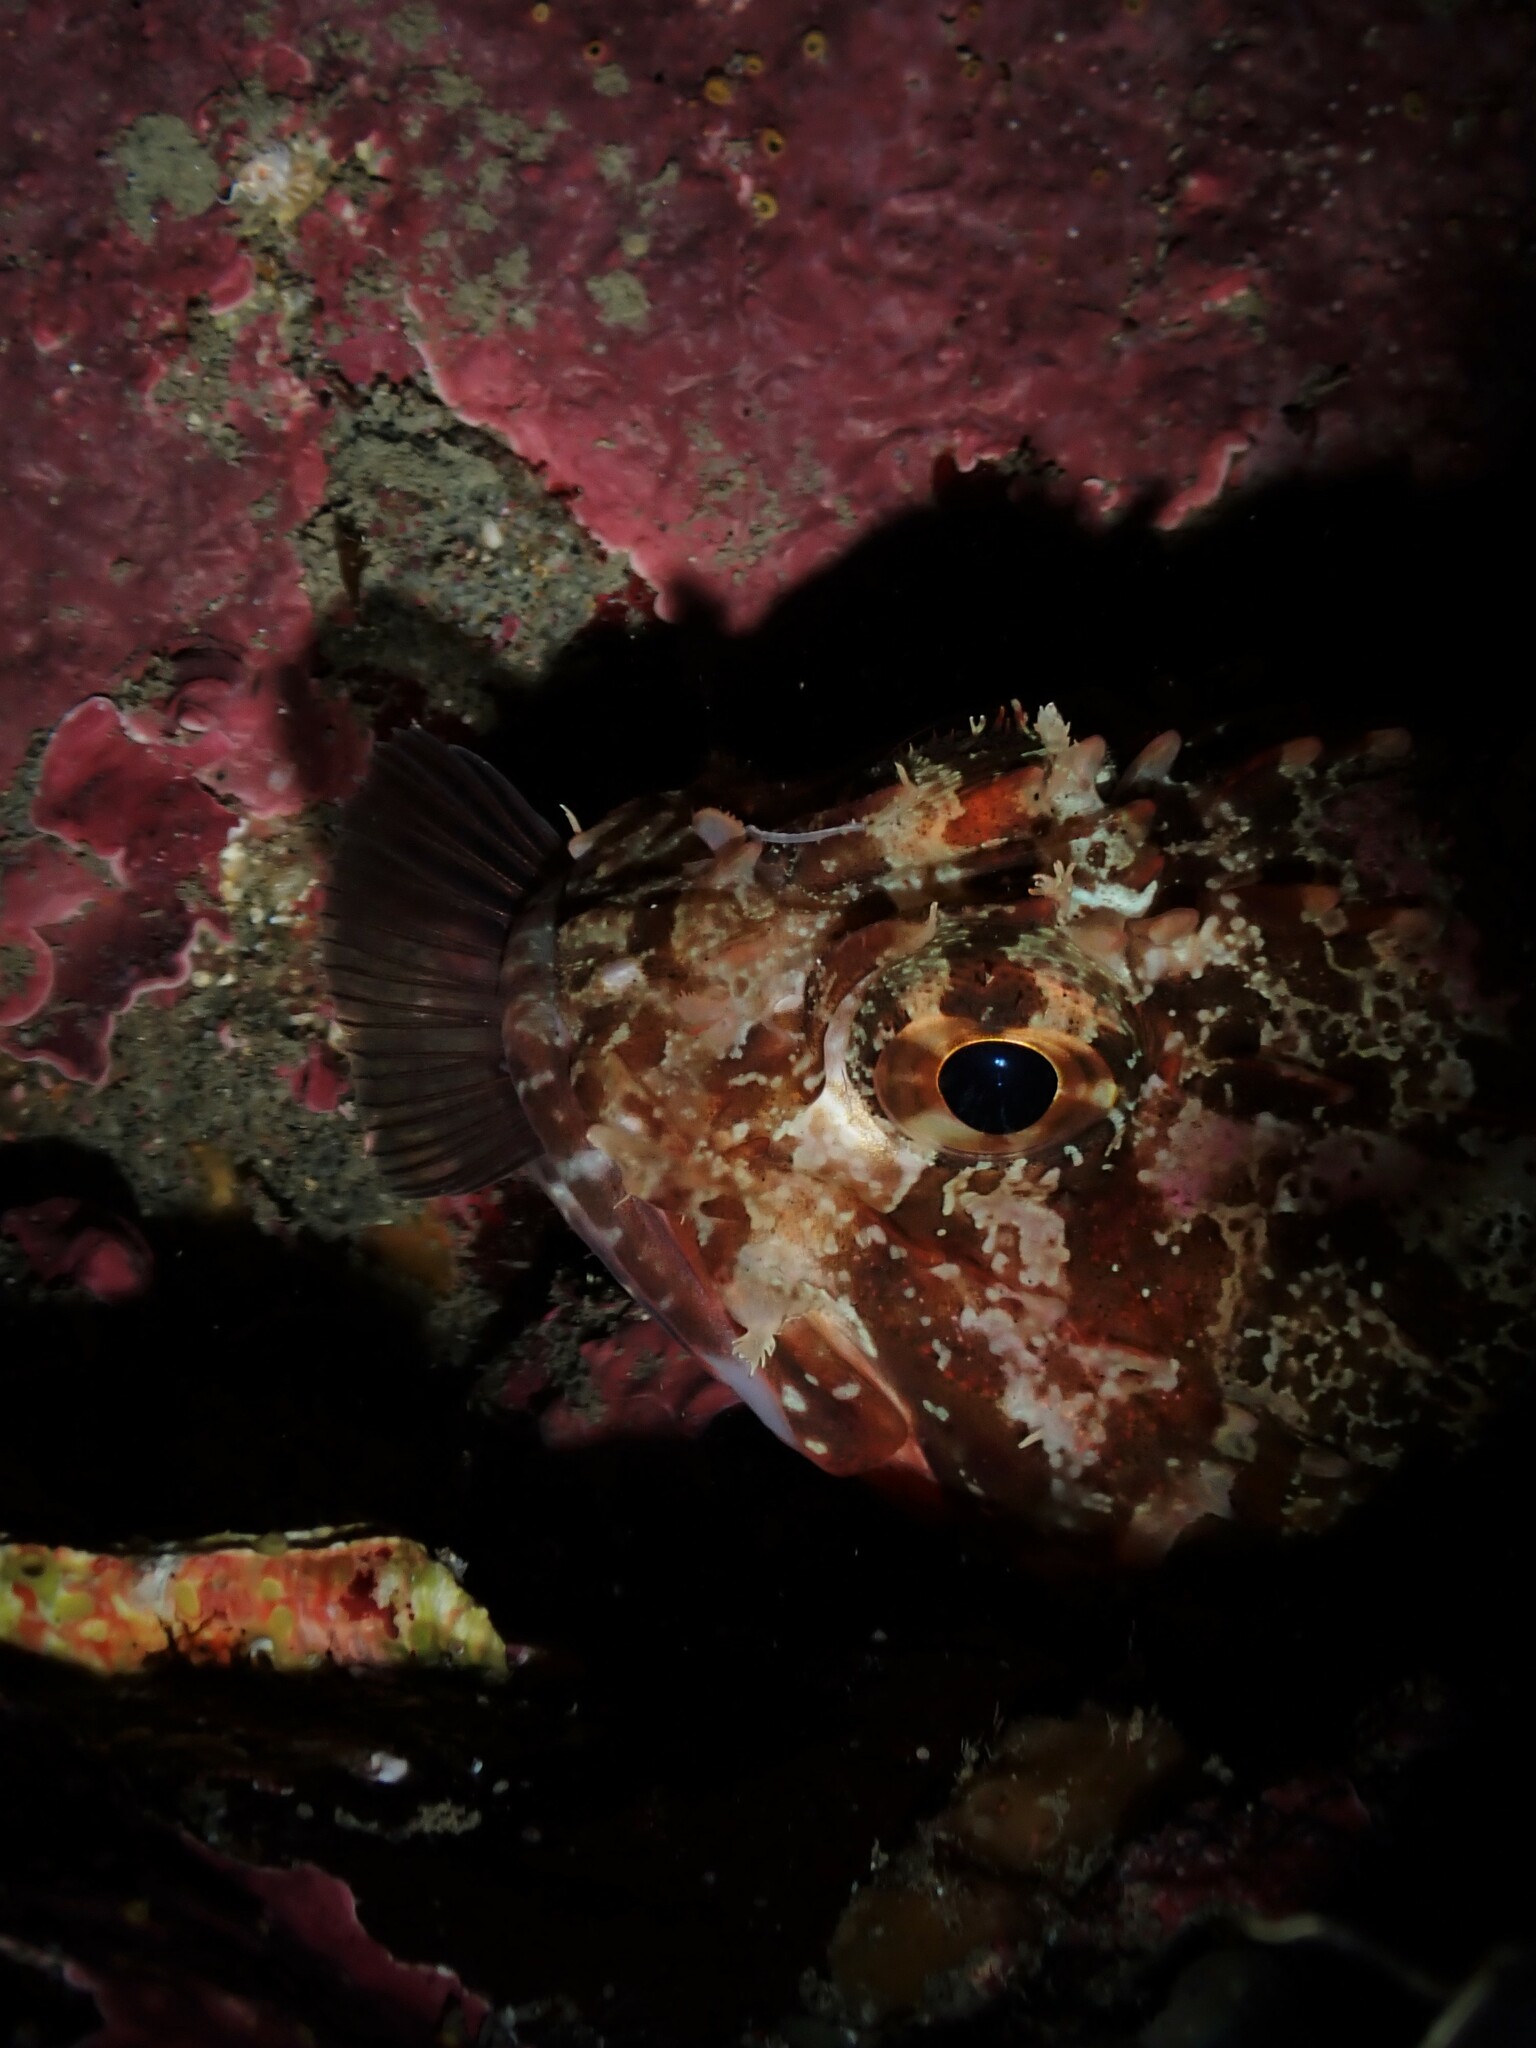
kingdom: Animalia
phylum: Chordata
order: Scorpaeniformes
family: Scorpaenidae
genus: Scorpaena
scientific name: Scorpaena papillosa
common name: Chained scorpionfish
